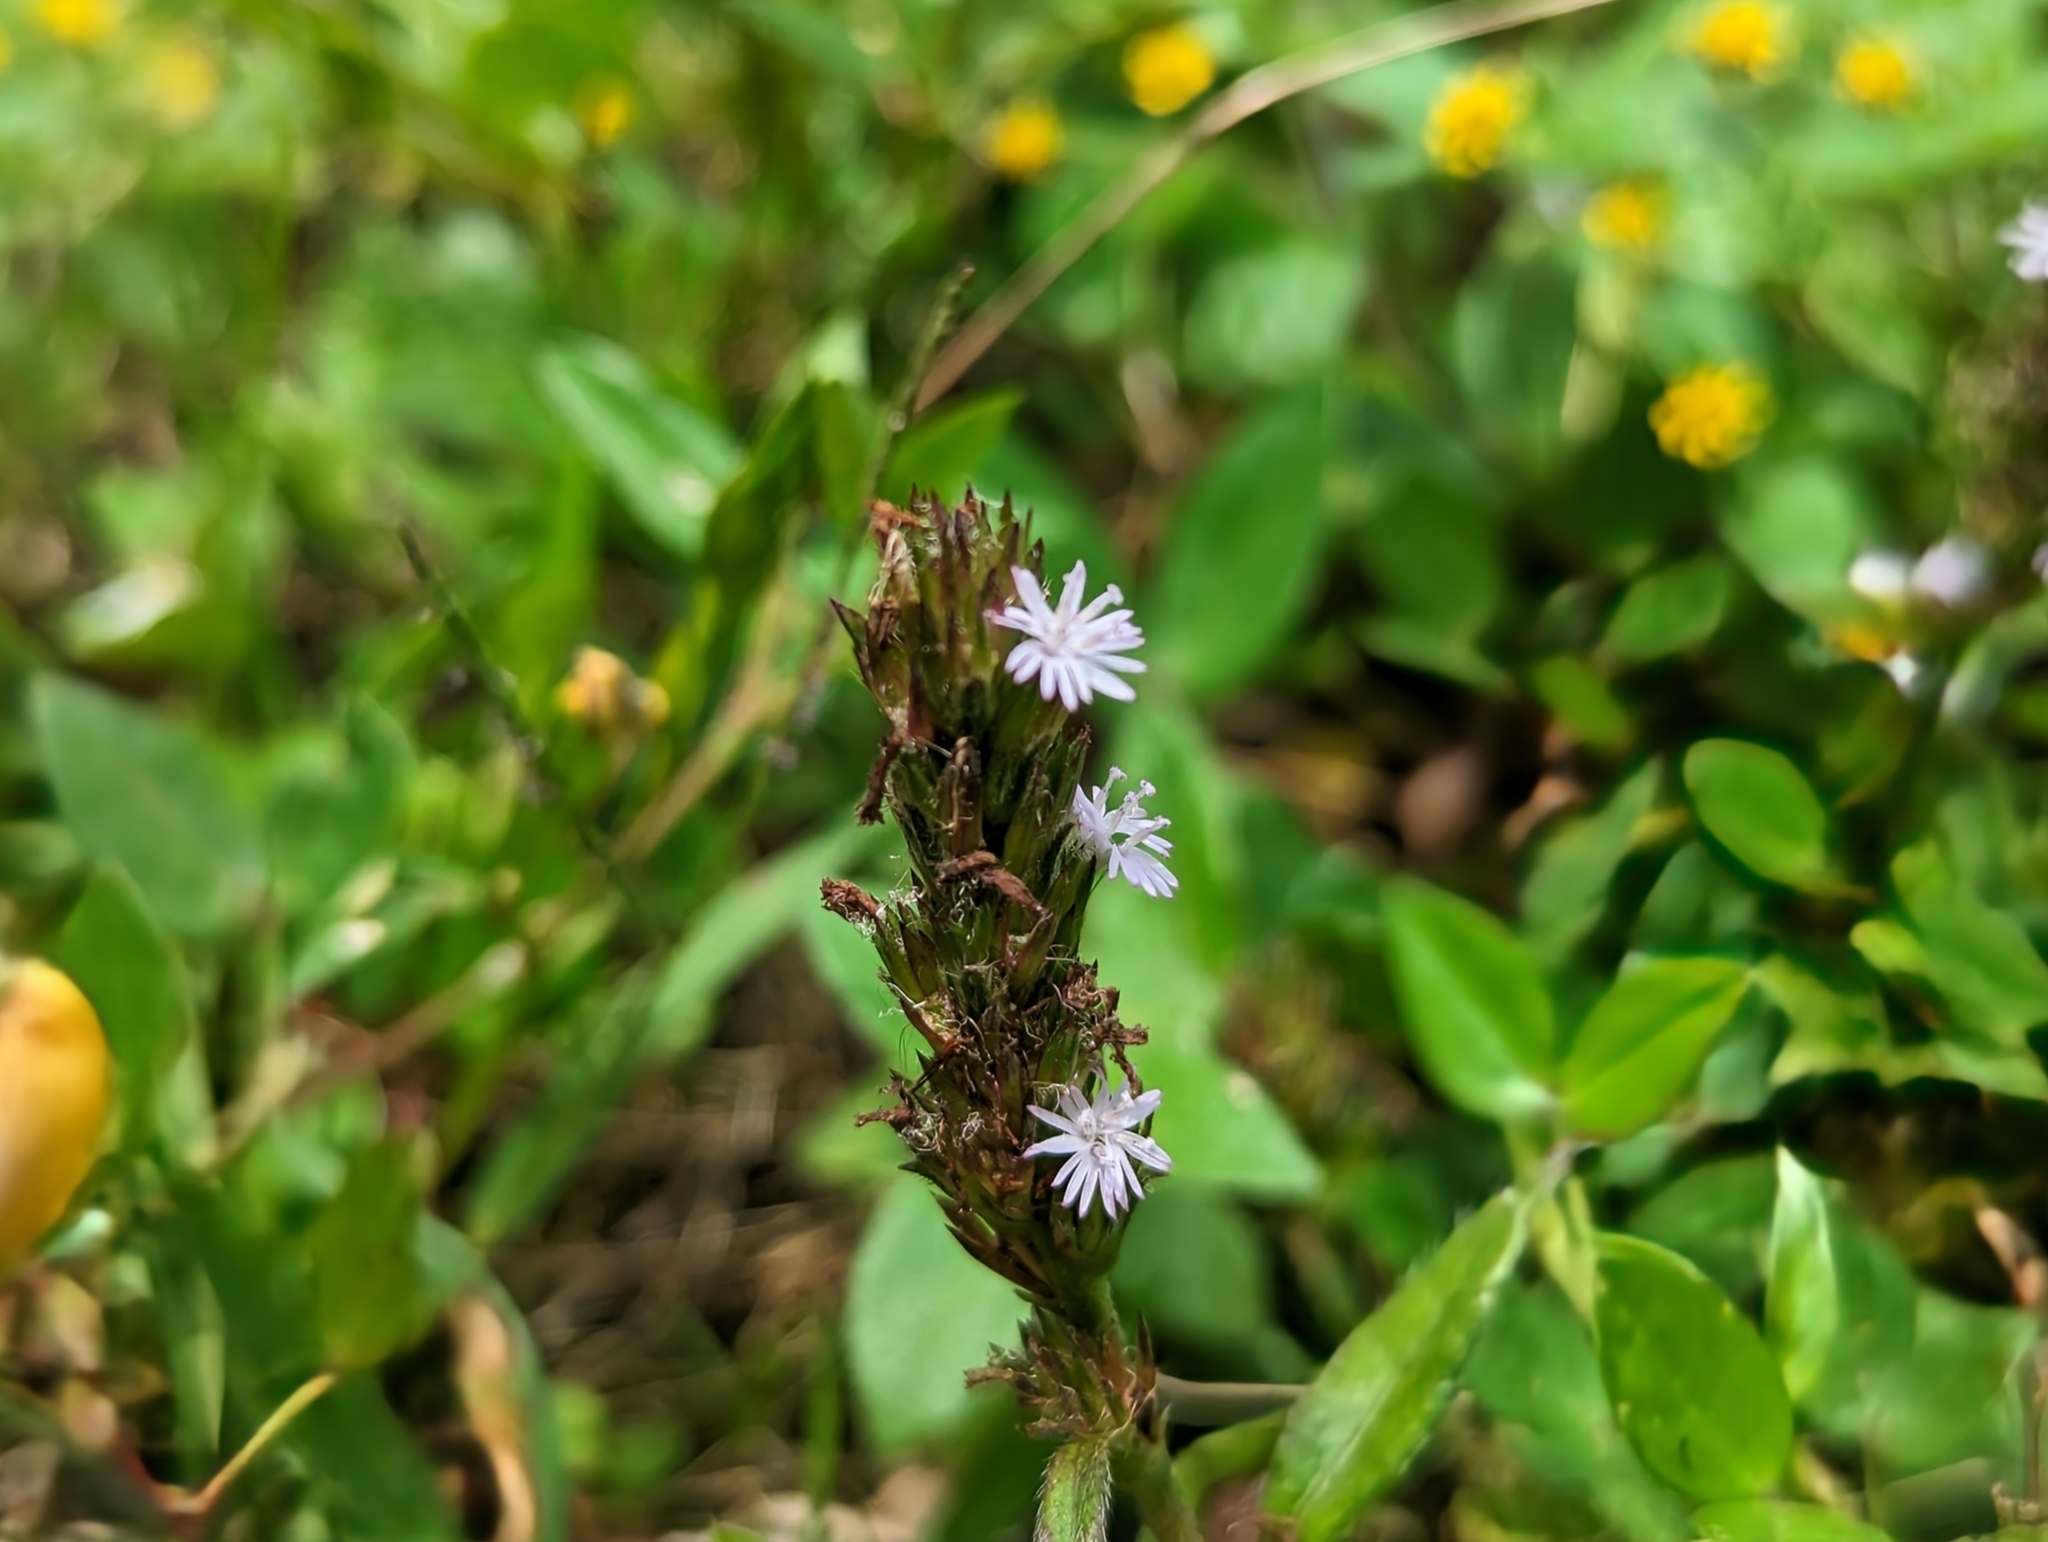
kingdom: Plantae
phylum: Tracheophyta
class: Magnoliopsida
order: Asterales
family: Asteraceae
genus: Pseudelephantopus
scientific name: Pseudelephantopus spicatus
